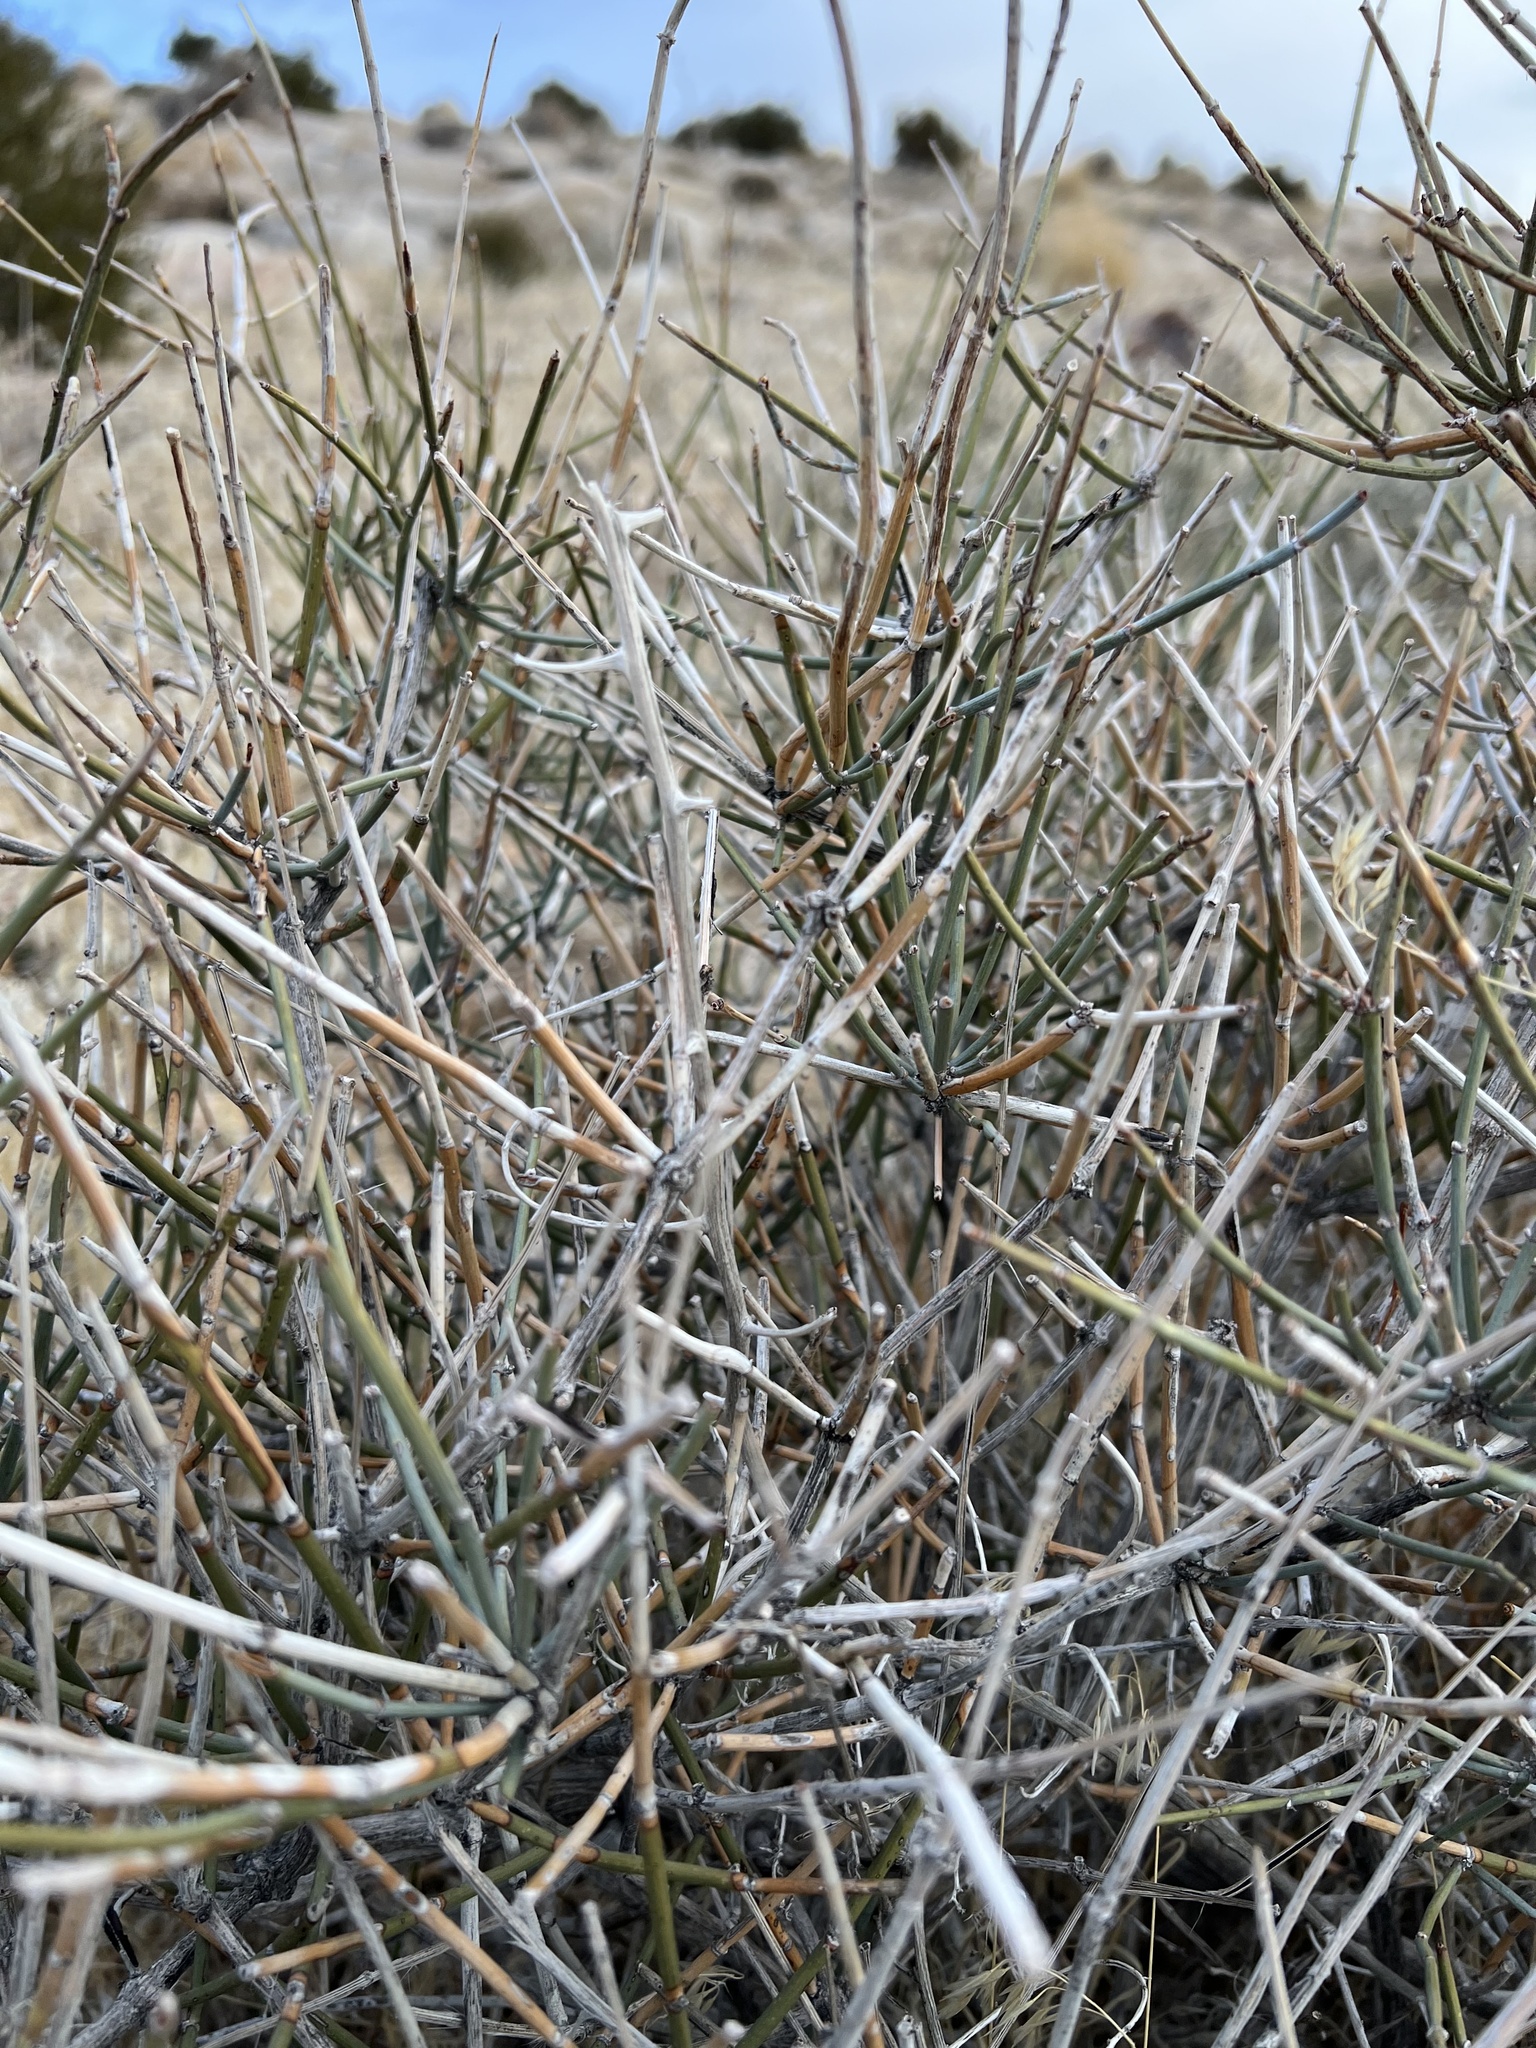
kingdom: Plantae
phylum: Tracheophyta
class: Gnetopsida
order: Ephedrales
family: Ephedraceae
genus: Ephedra
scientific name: Ephedra nevadensis
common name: Gray ephedra
